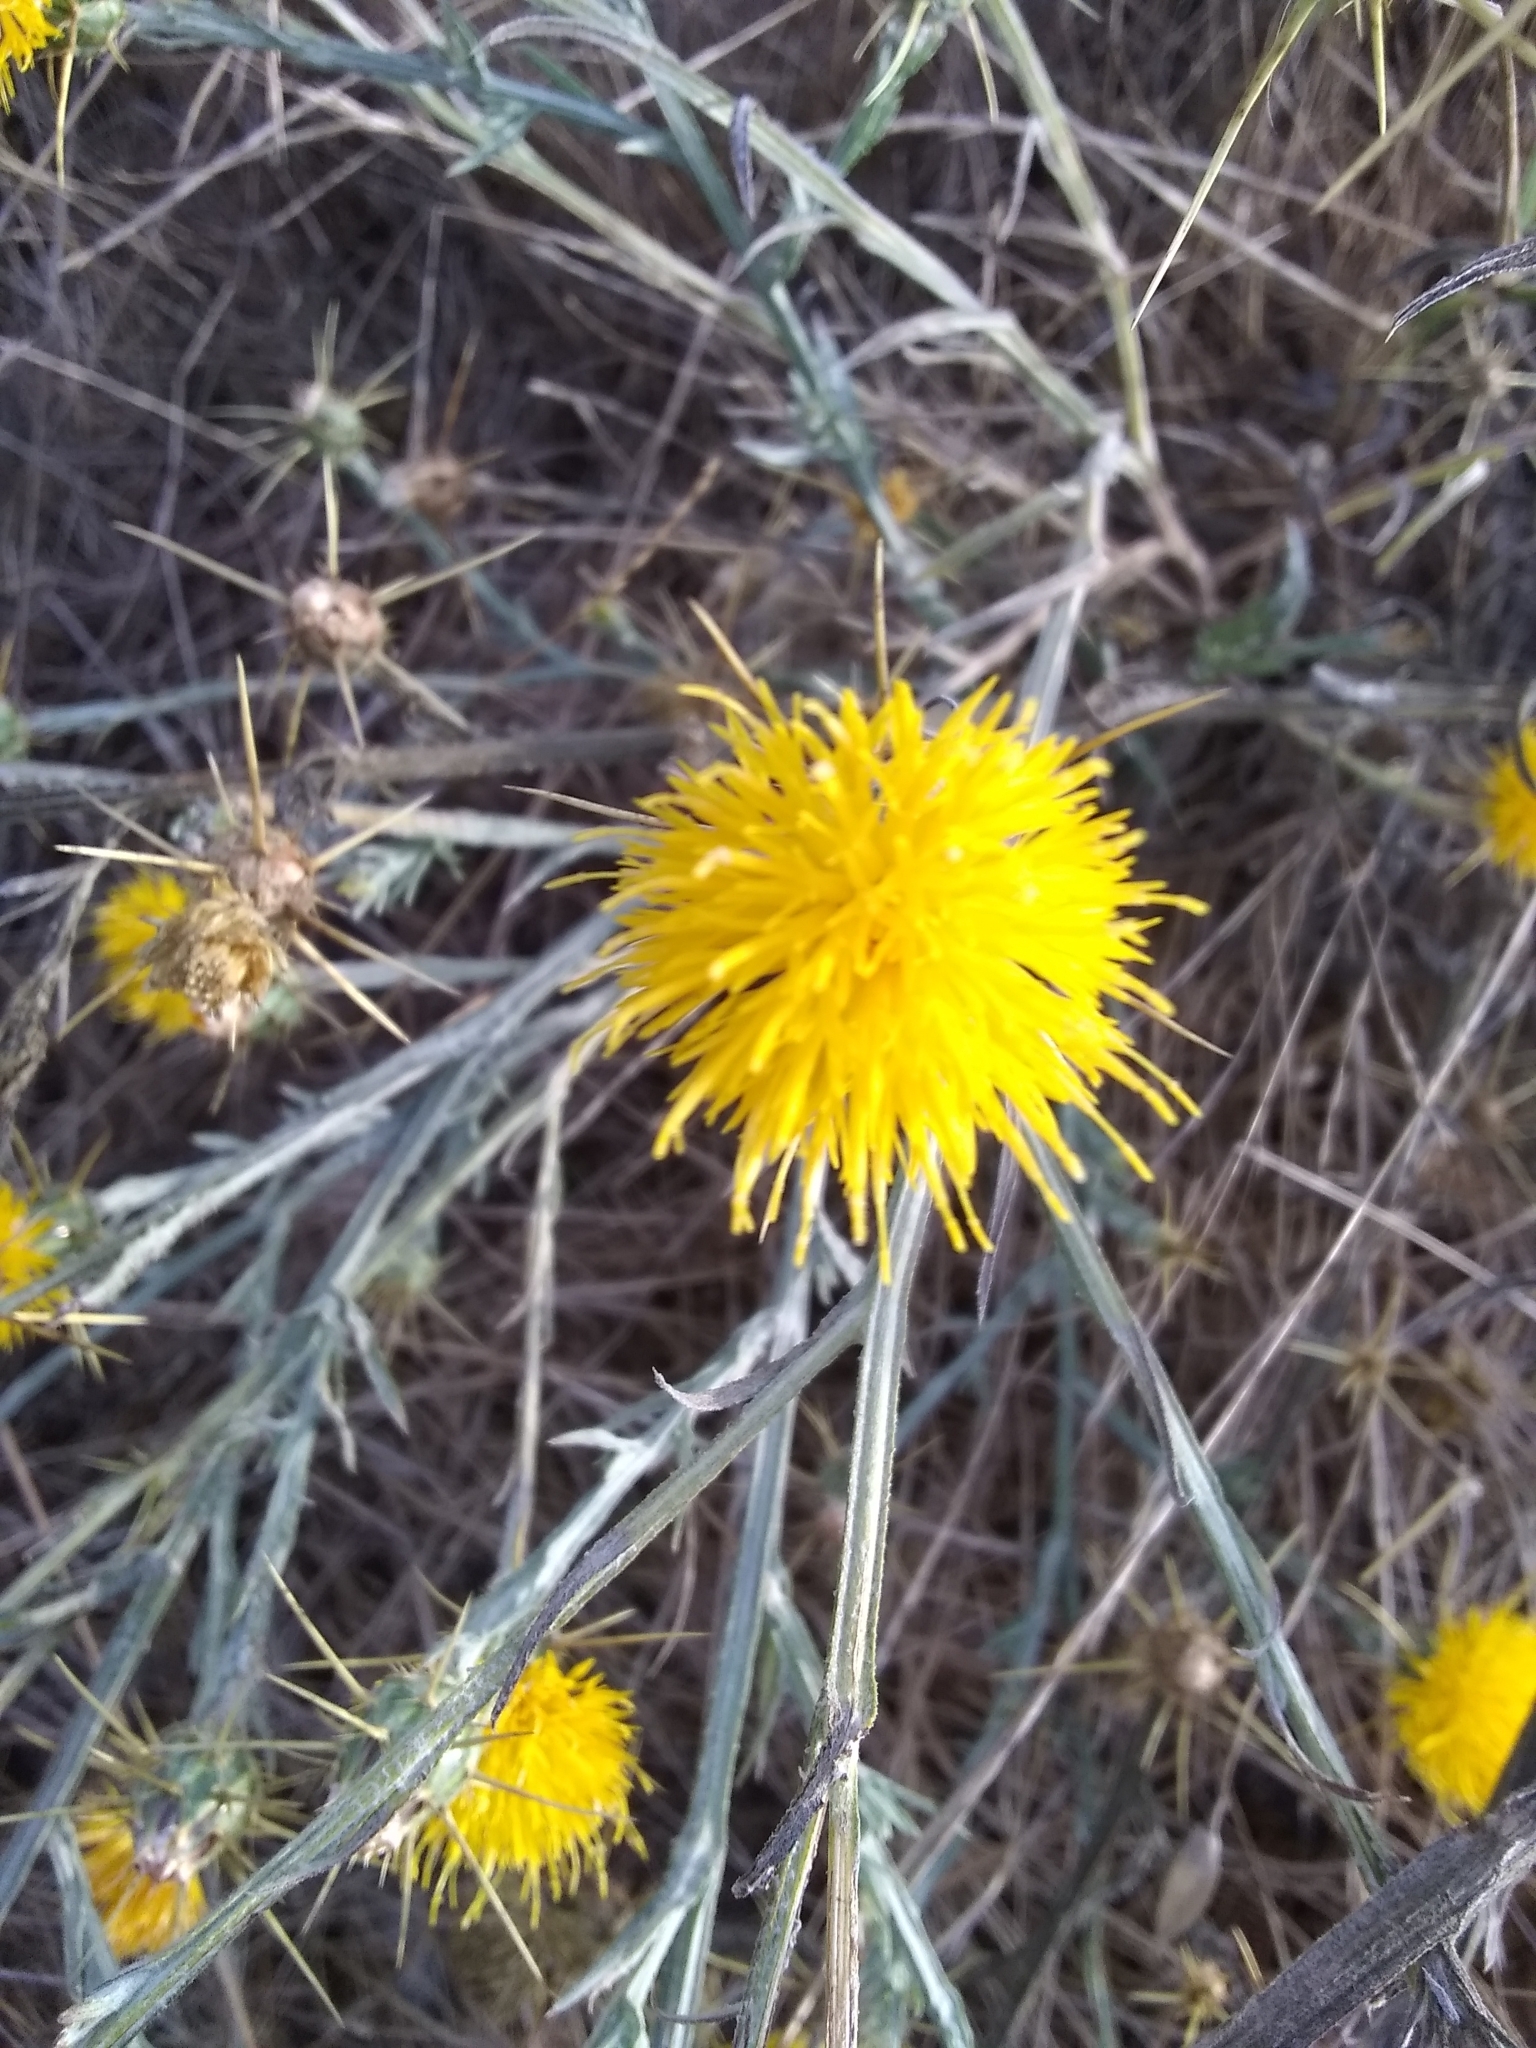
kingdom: Plantae
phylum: Tracheophyta
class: Magnoliopsida
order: Asterales
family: Asteraceae
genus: Centaurea
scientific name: Centaurea solstitialis
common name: Yellow star-thistle
